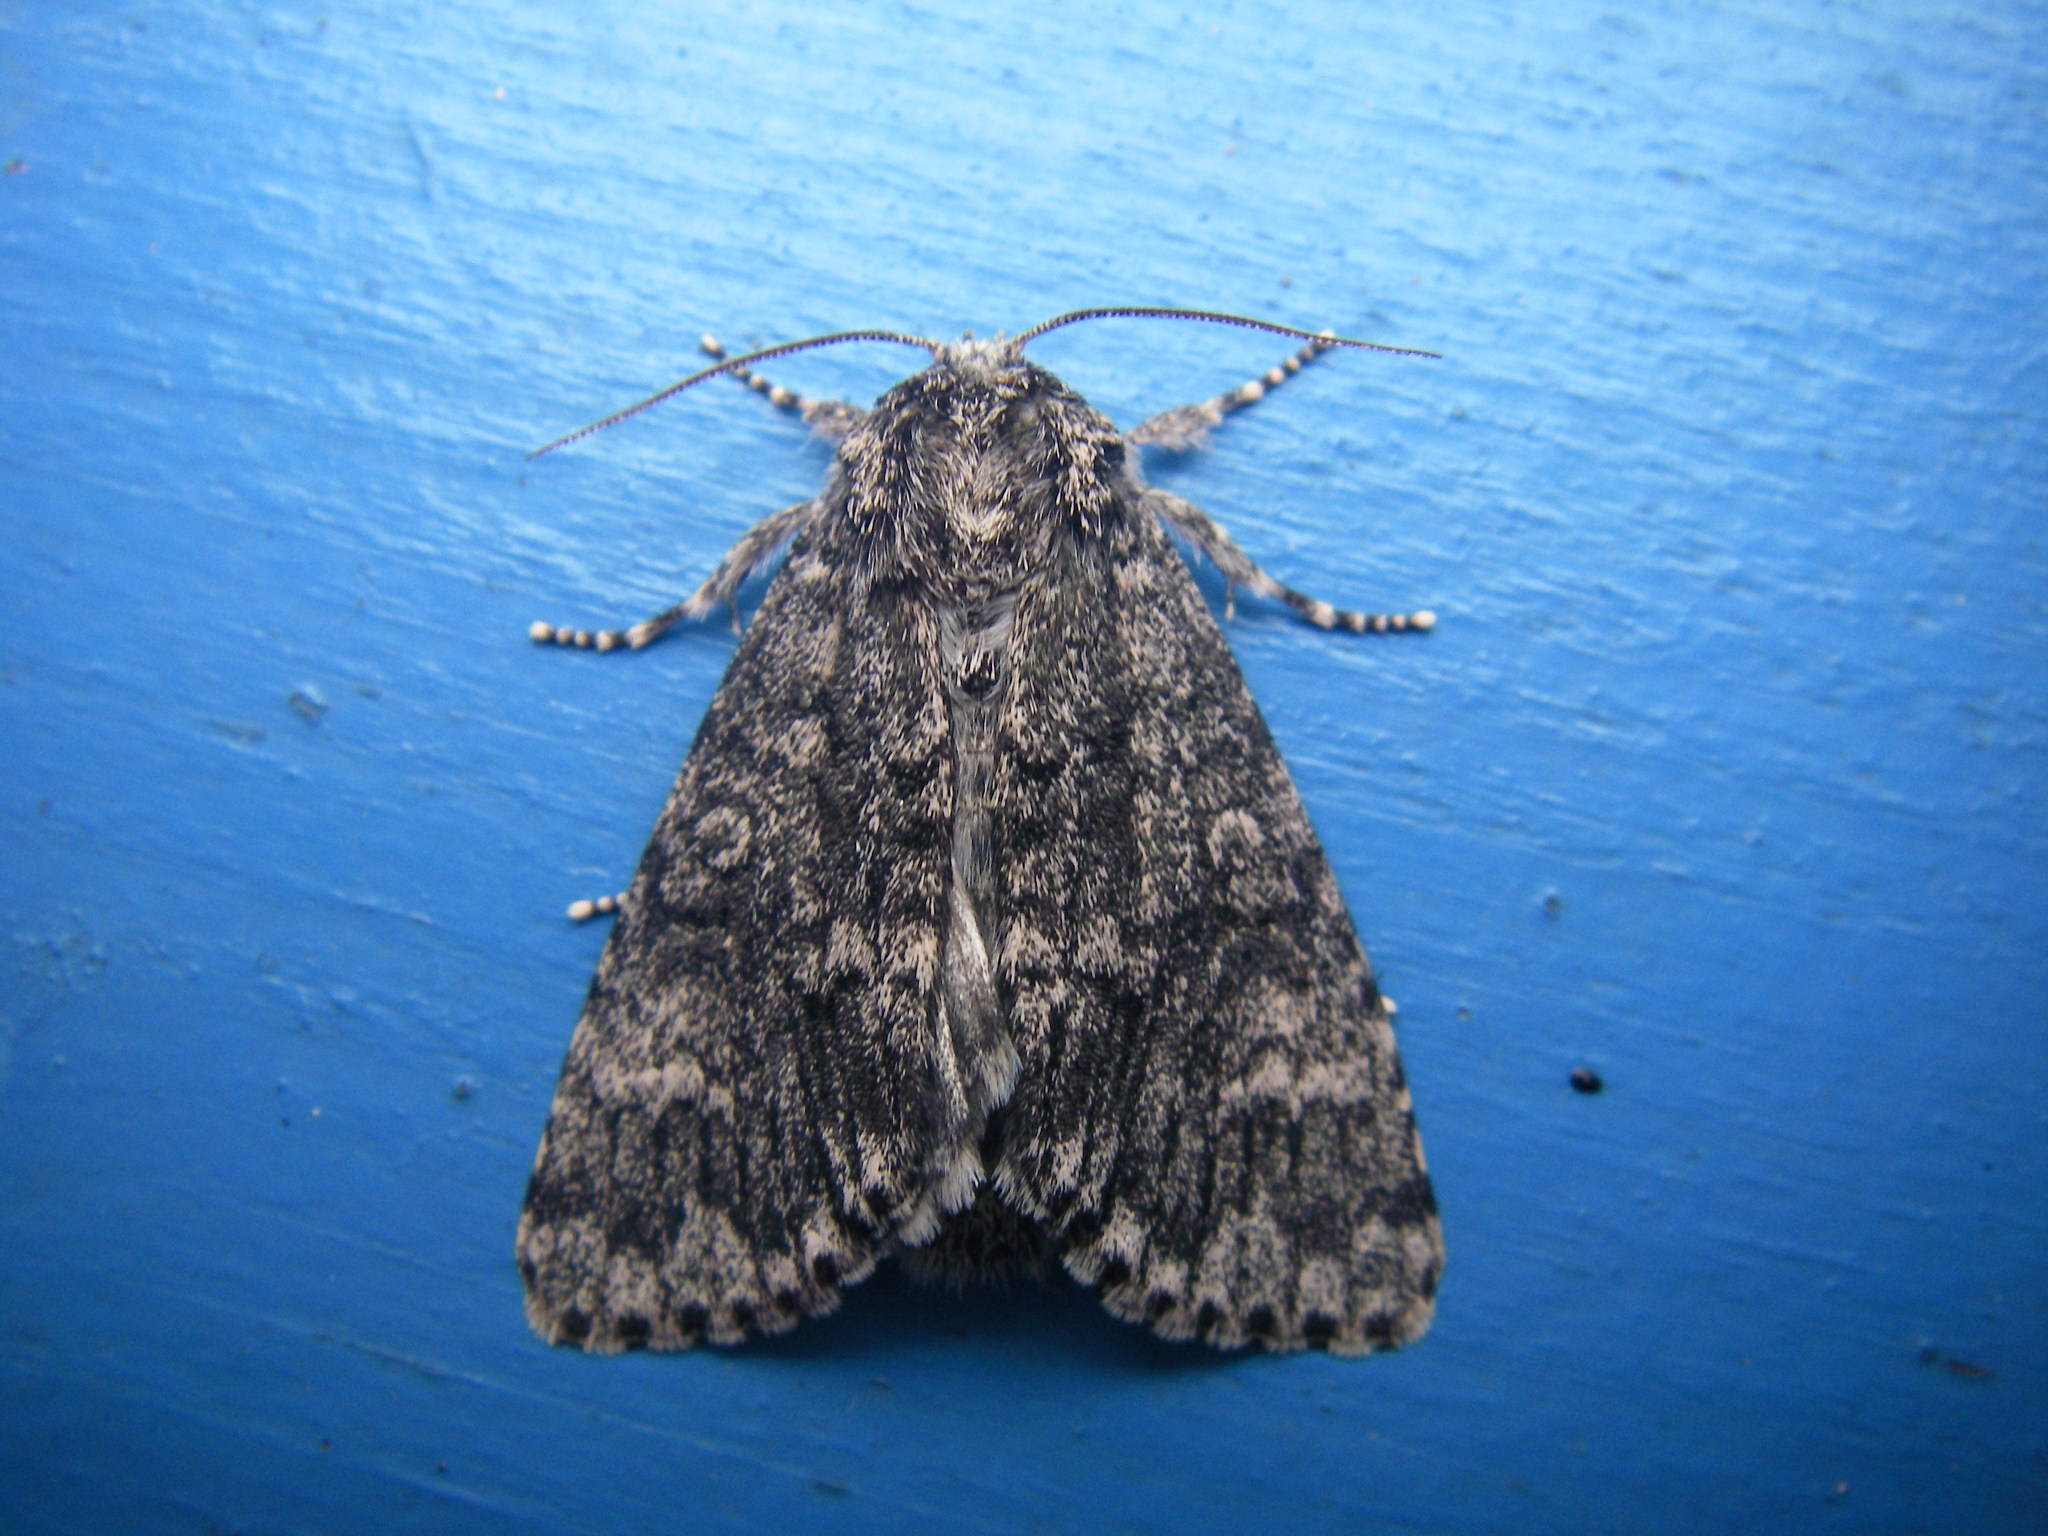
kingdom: Animalia
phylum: Arthropoda
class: Insecta
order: Lepidoptera
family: Noctuidae
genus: Acronicta
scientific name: Acronicta megacephala
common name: Poplar grey
